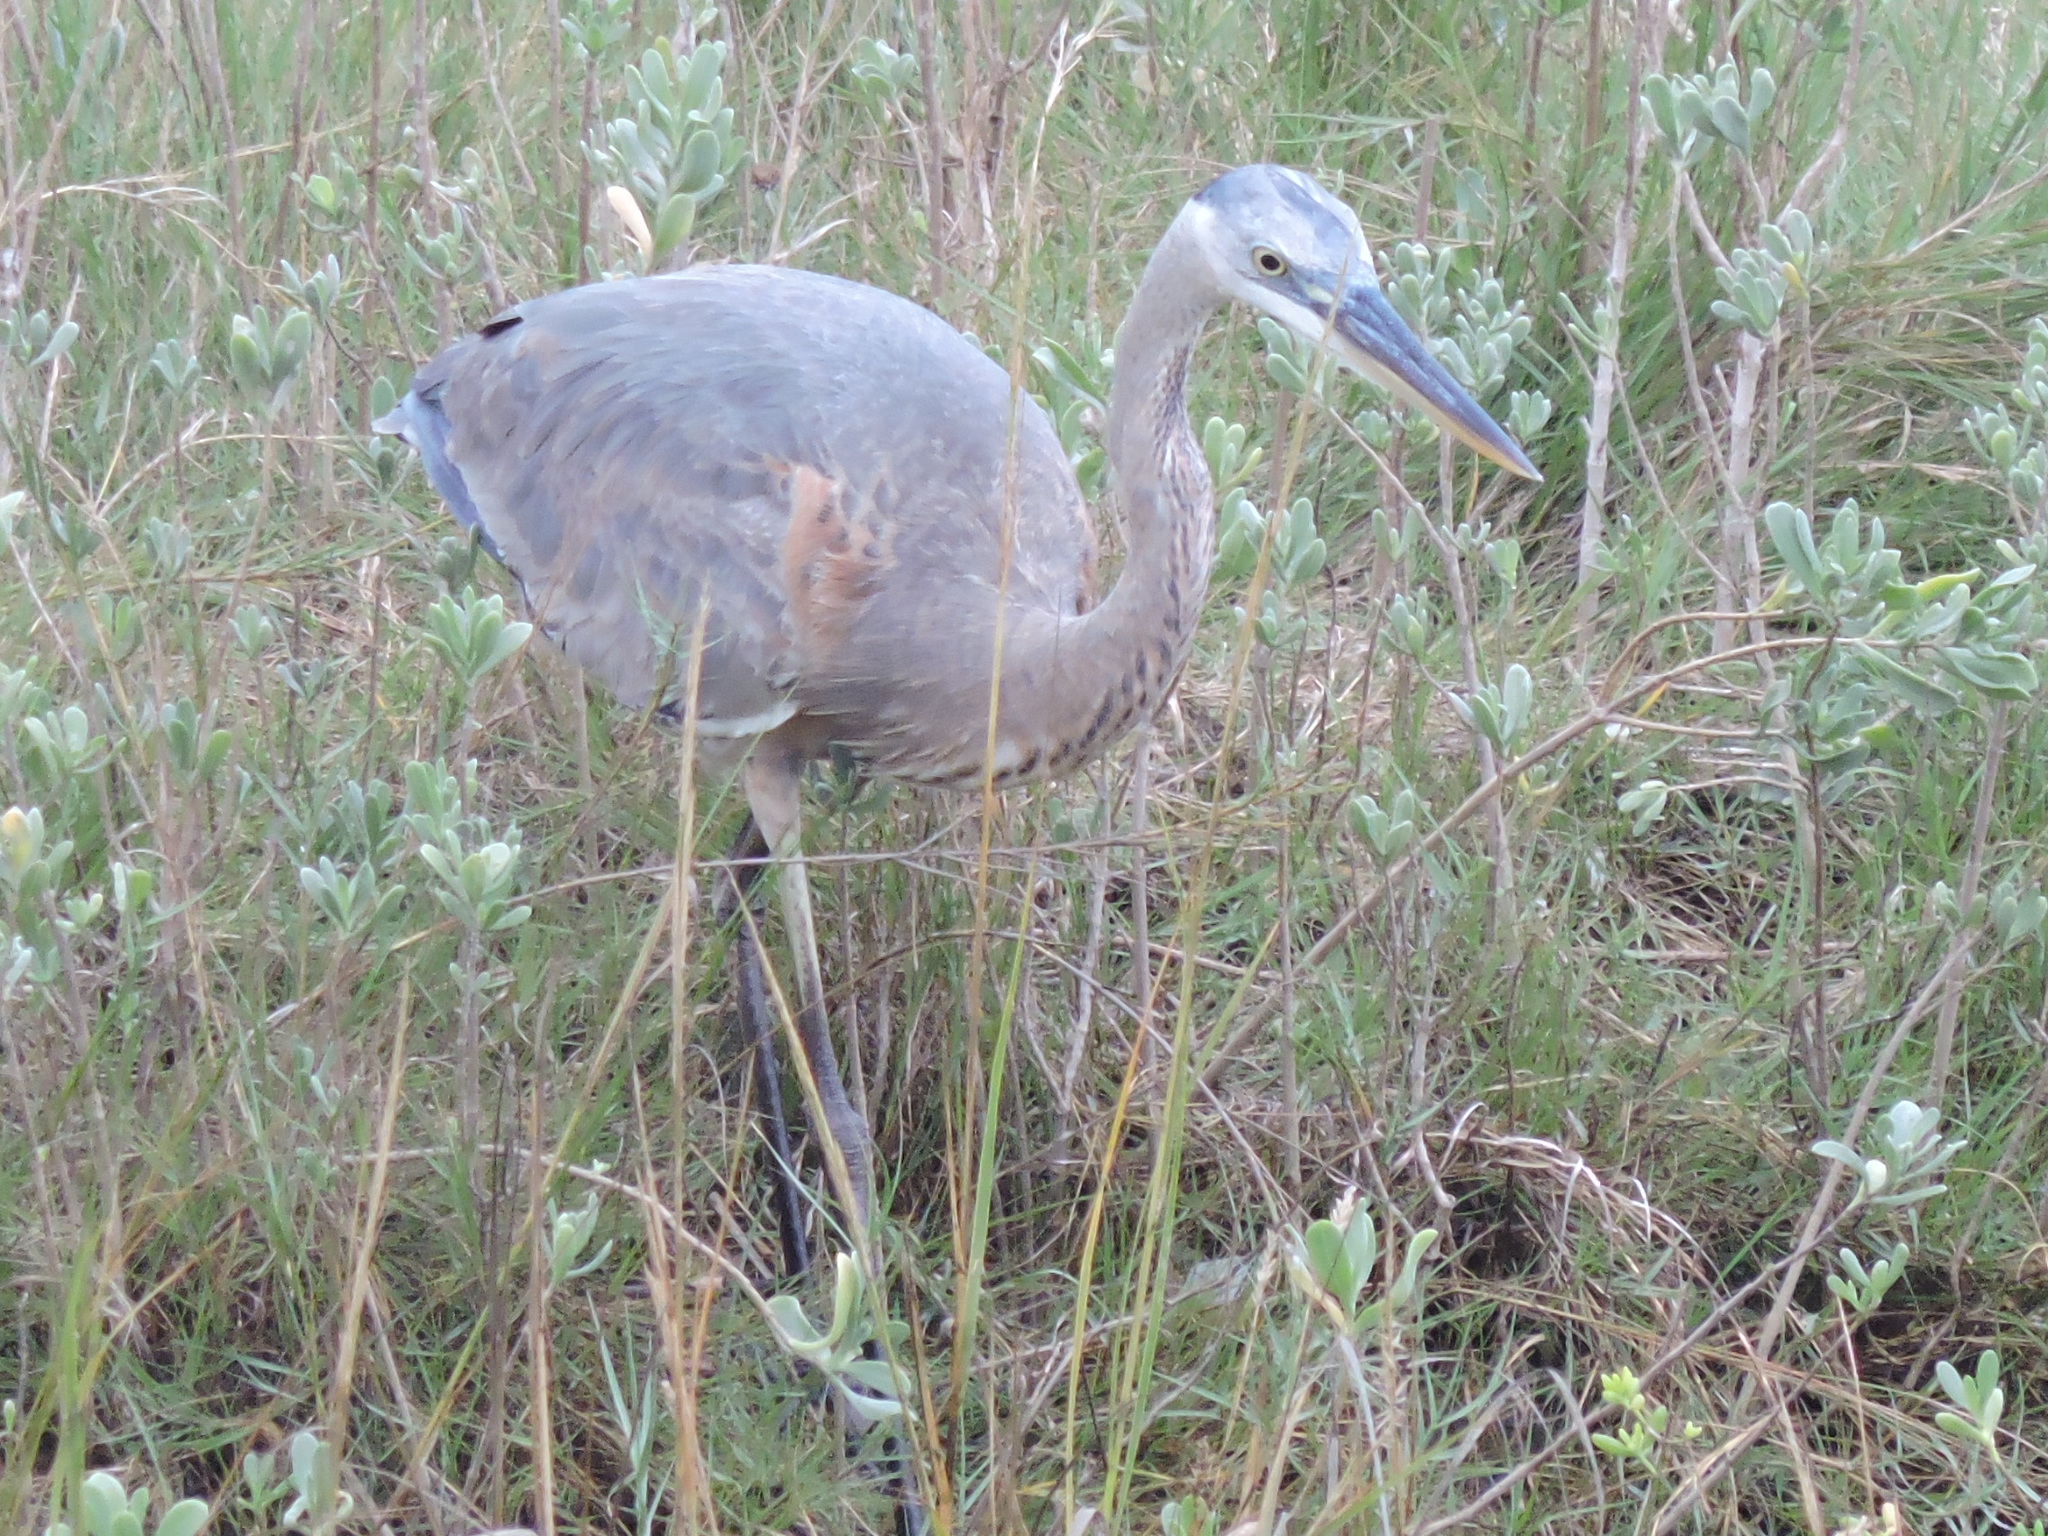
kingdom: Animalia
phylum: Chordata
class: Aves
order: Pelecaniformes
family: Ardeidae
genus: Ardea
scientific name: Ardea herodias
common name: Great blue heron
